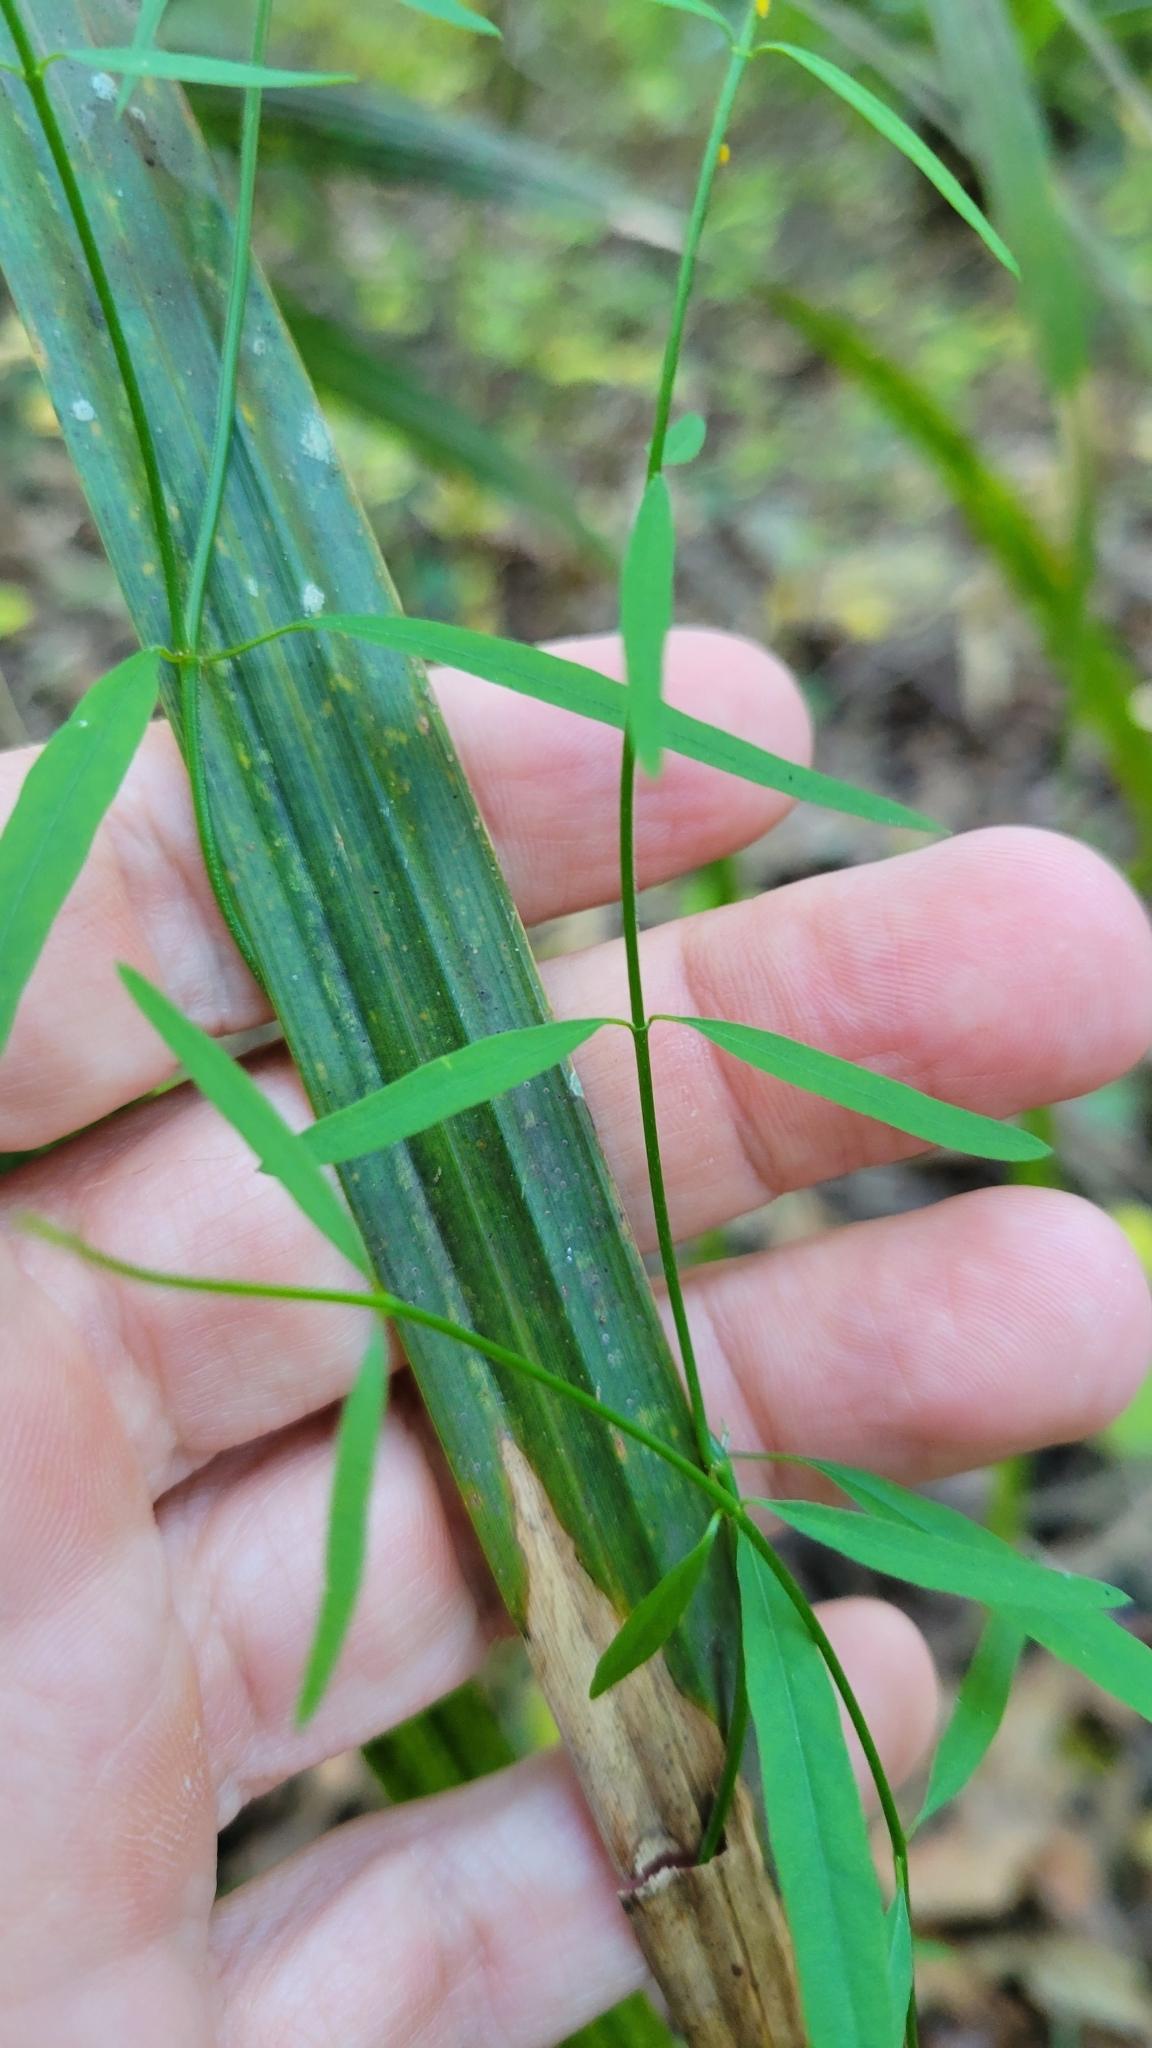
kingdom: Plantae
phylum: Tracheophyta
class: Magnoliopsida
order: Gentianales
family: Apocynaceae
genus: Orthosia
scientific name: Orthosia scoparia
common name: Leafless swallow-wort
